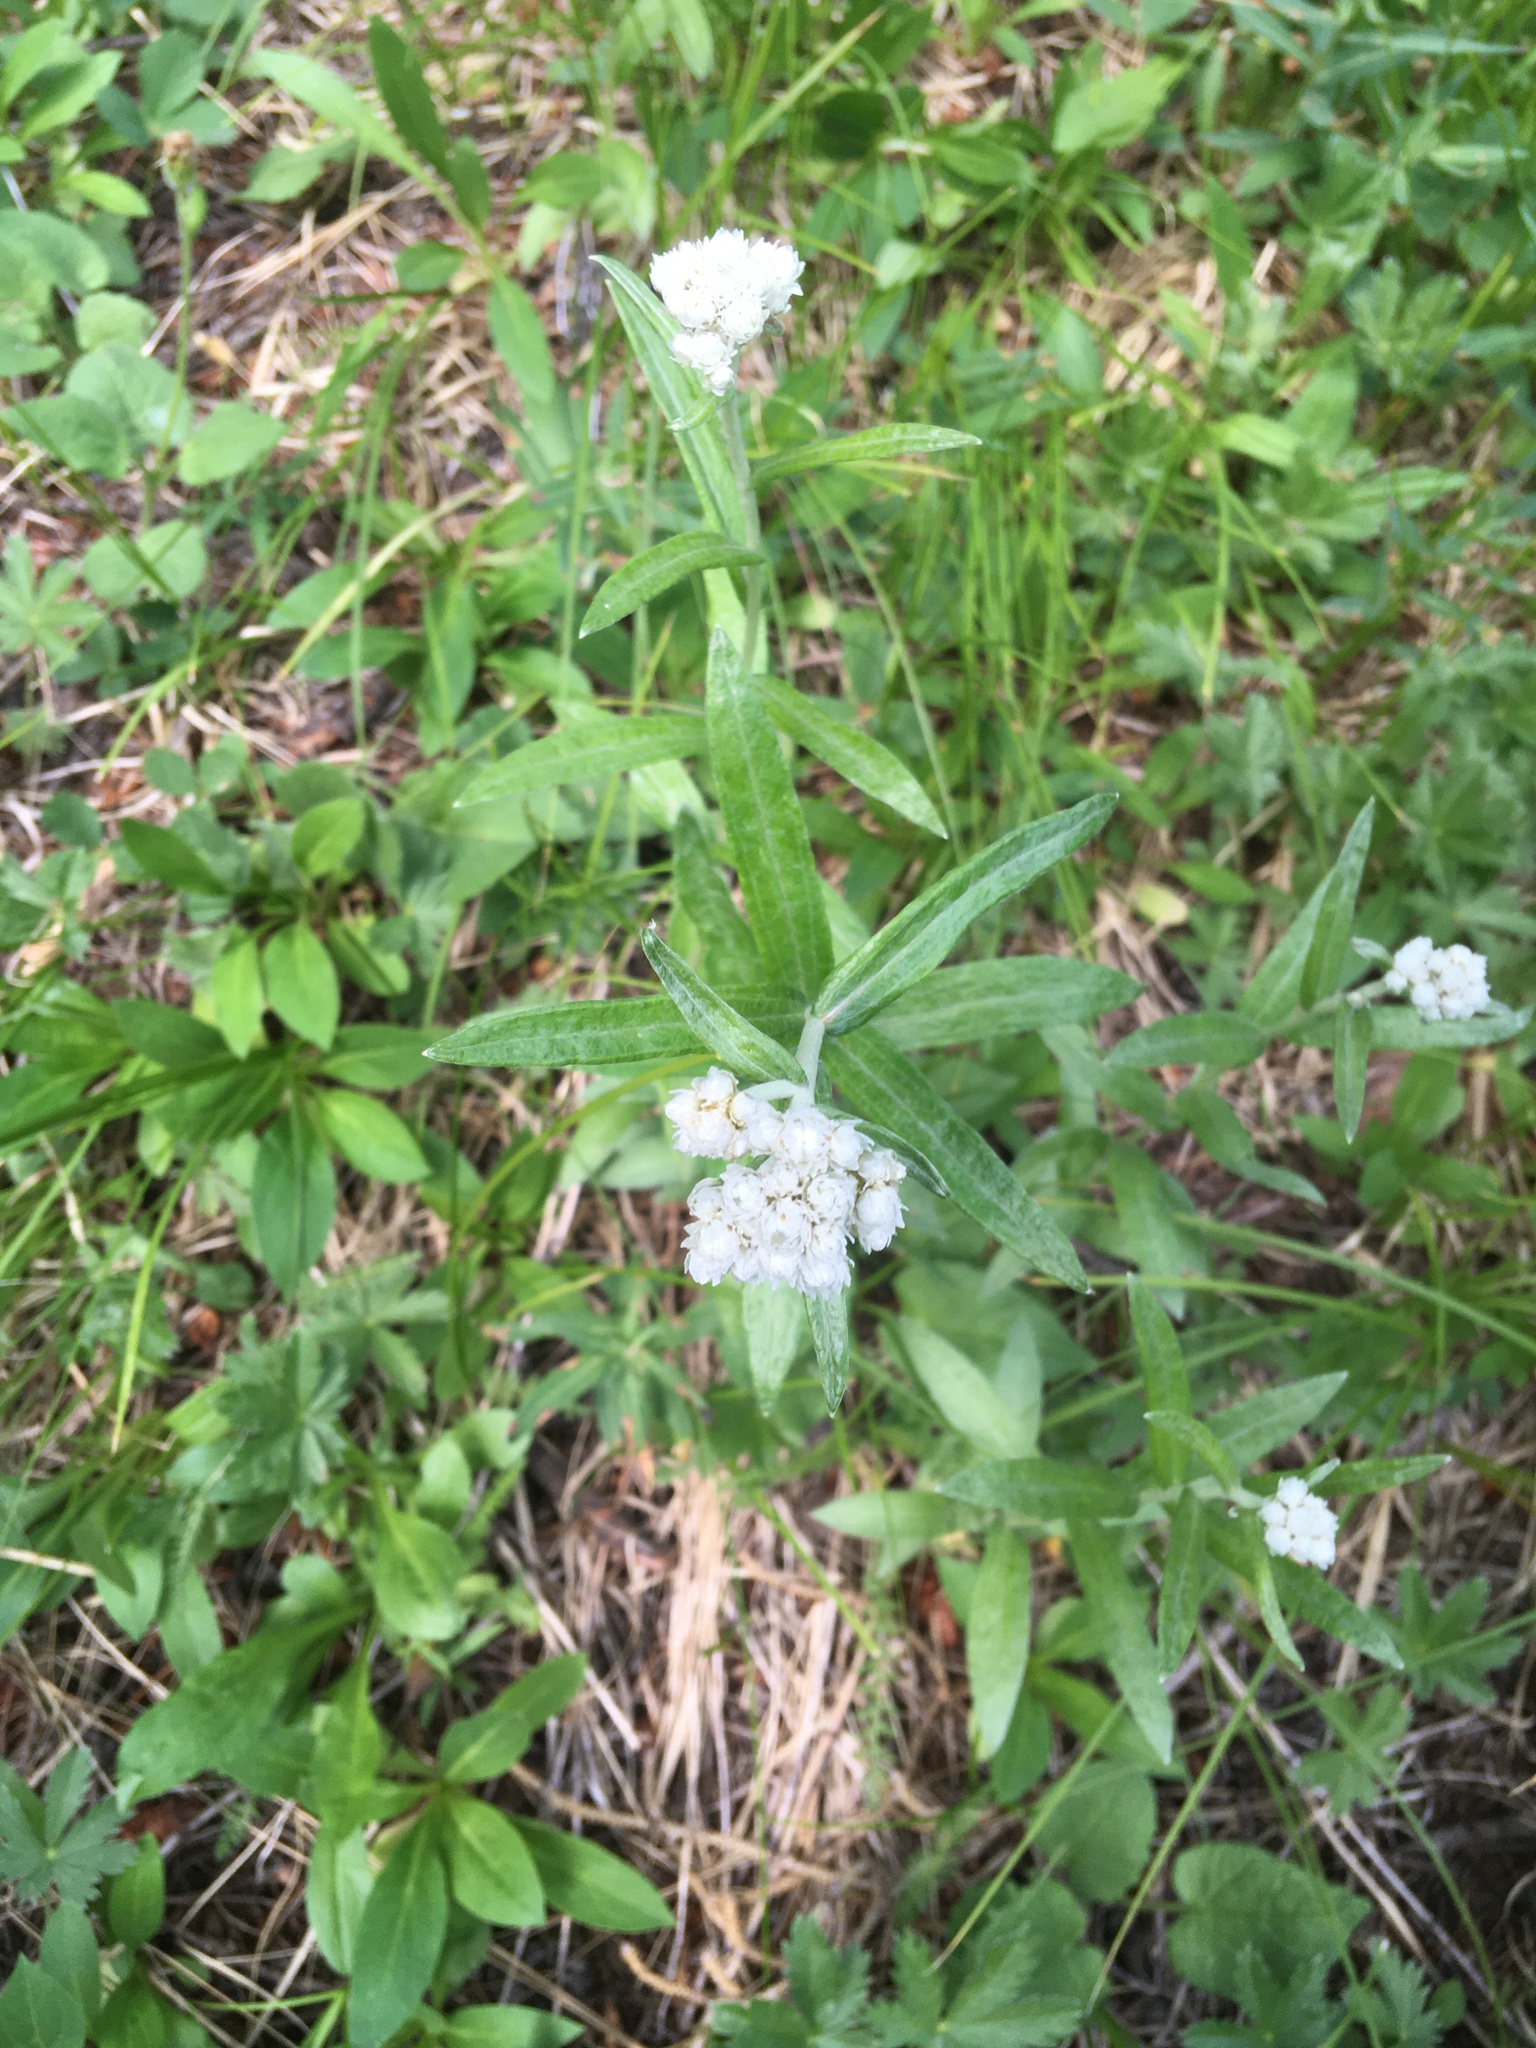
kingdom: Plantae
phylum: Tracheophyta
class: Magnoliopsida
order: Asterales
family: Asteraceae
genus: Anaphalis
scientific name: Anaphalis margaritacea
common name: Pearly everlasting
